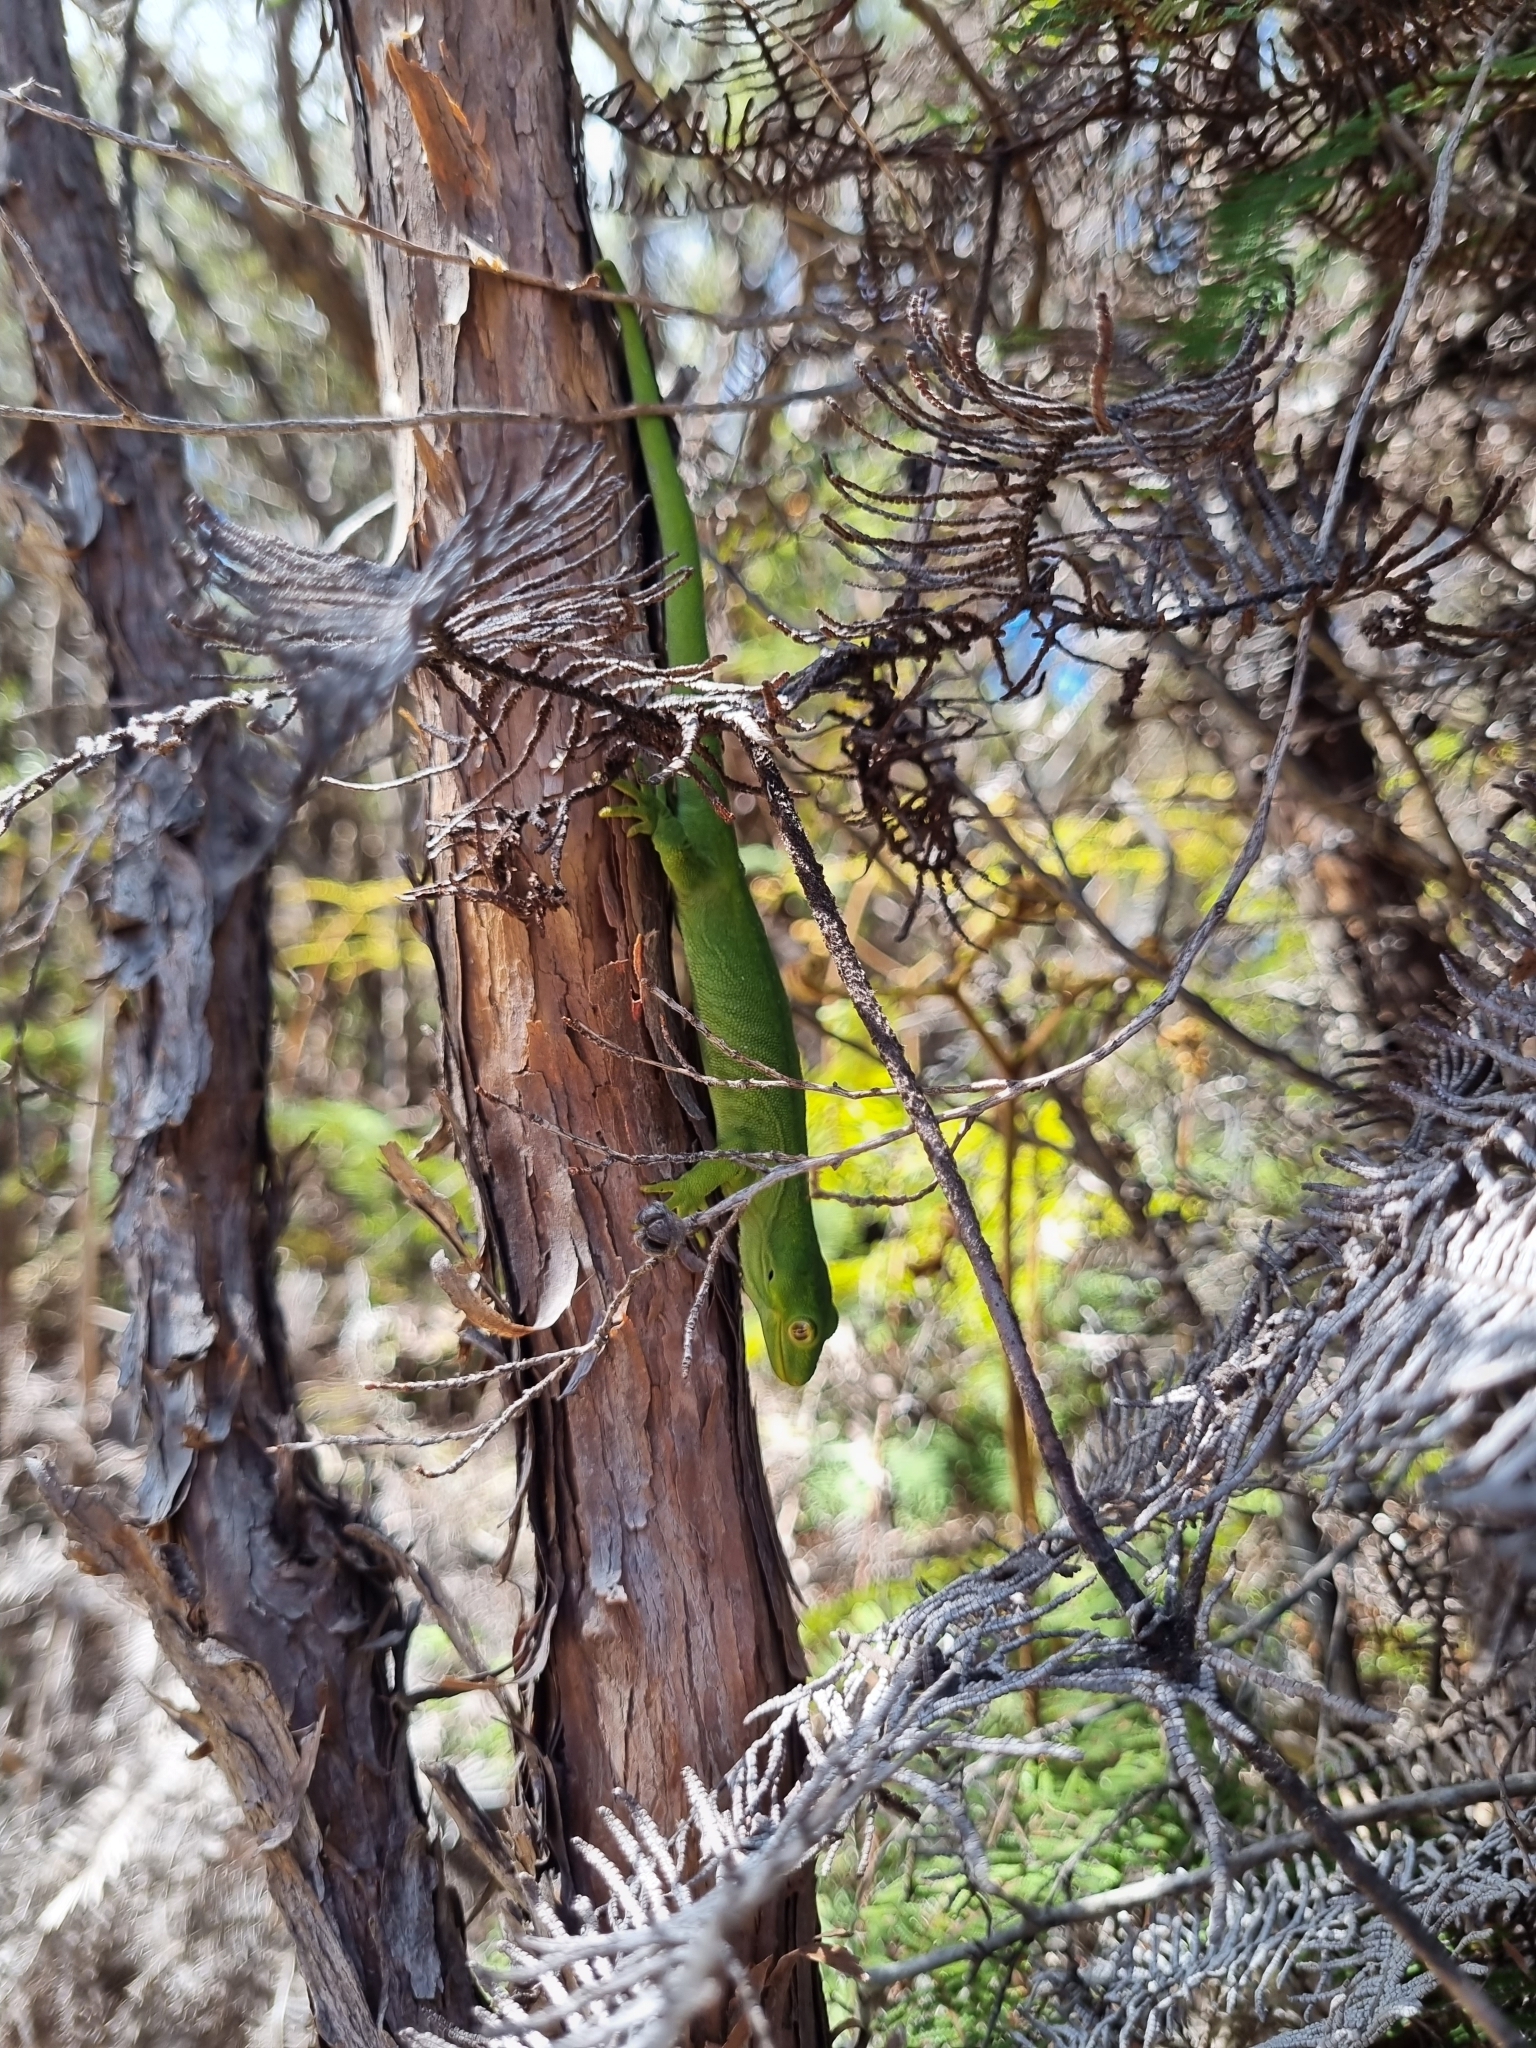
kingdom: Animalia
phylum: Chordata
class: Squamata
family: Diplodactylidae
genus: Naultinus
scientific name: Naultinus stellatus
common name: Nelson green gecko
